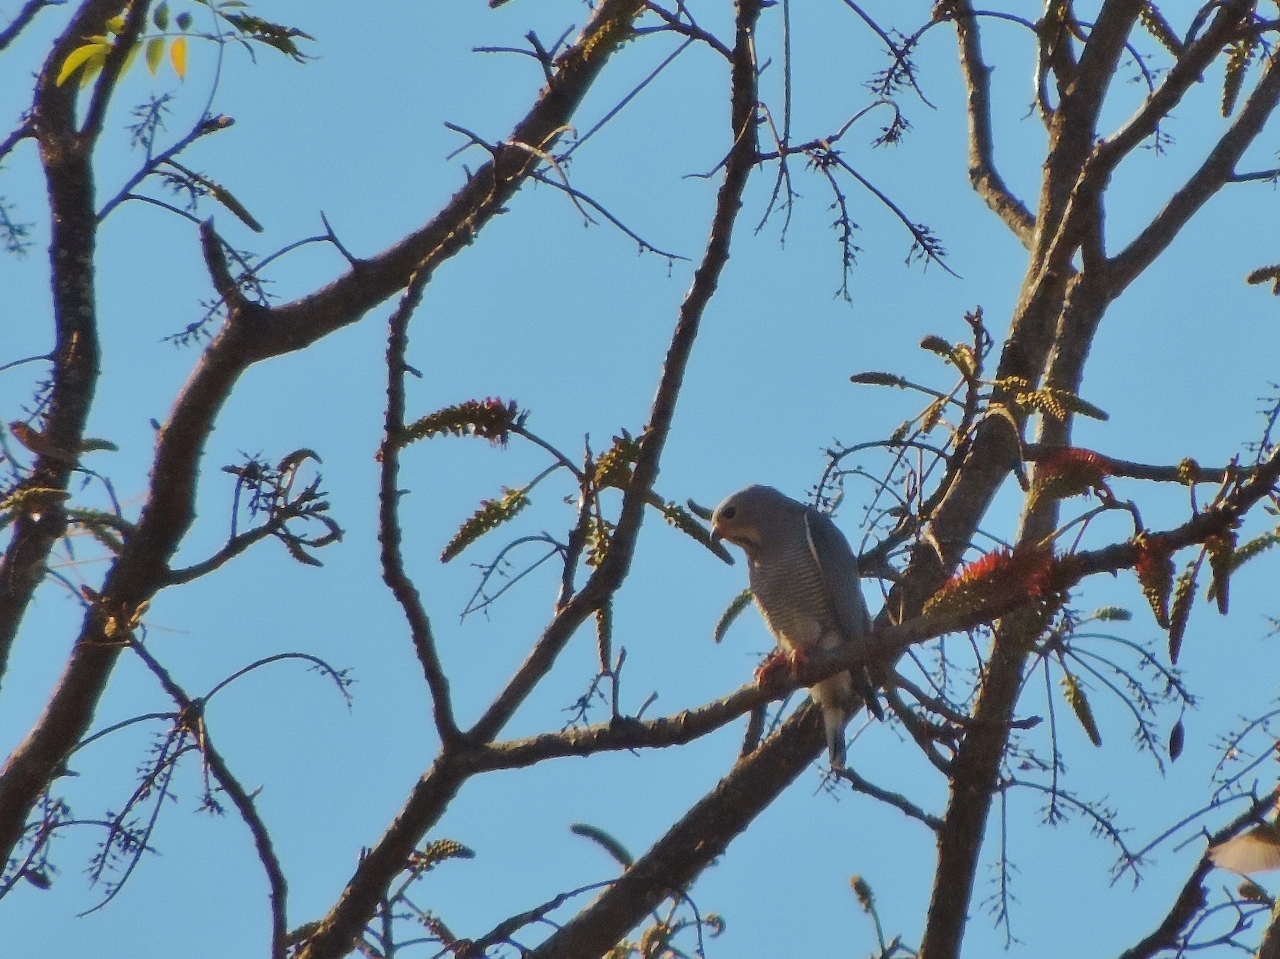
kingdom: Animalia
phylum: Chordata
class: Aves
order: Accipitriformes
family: Accipitridae
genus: Kaupifalco
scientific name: Kaupifalco monogrammicus
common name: Lizard buzzard
